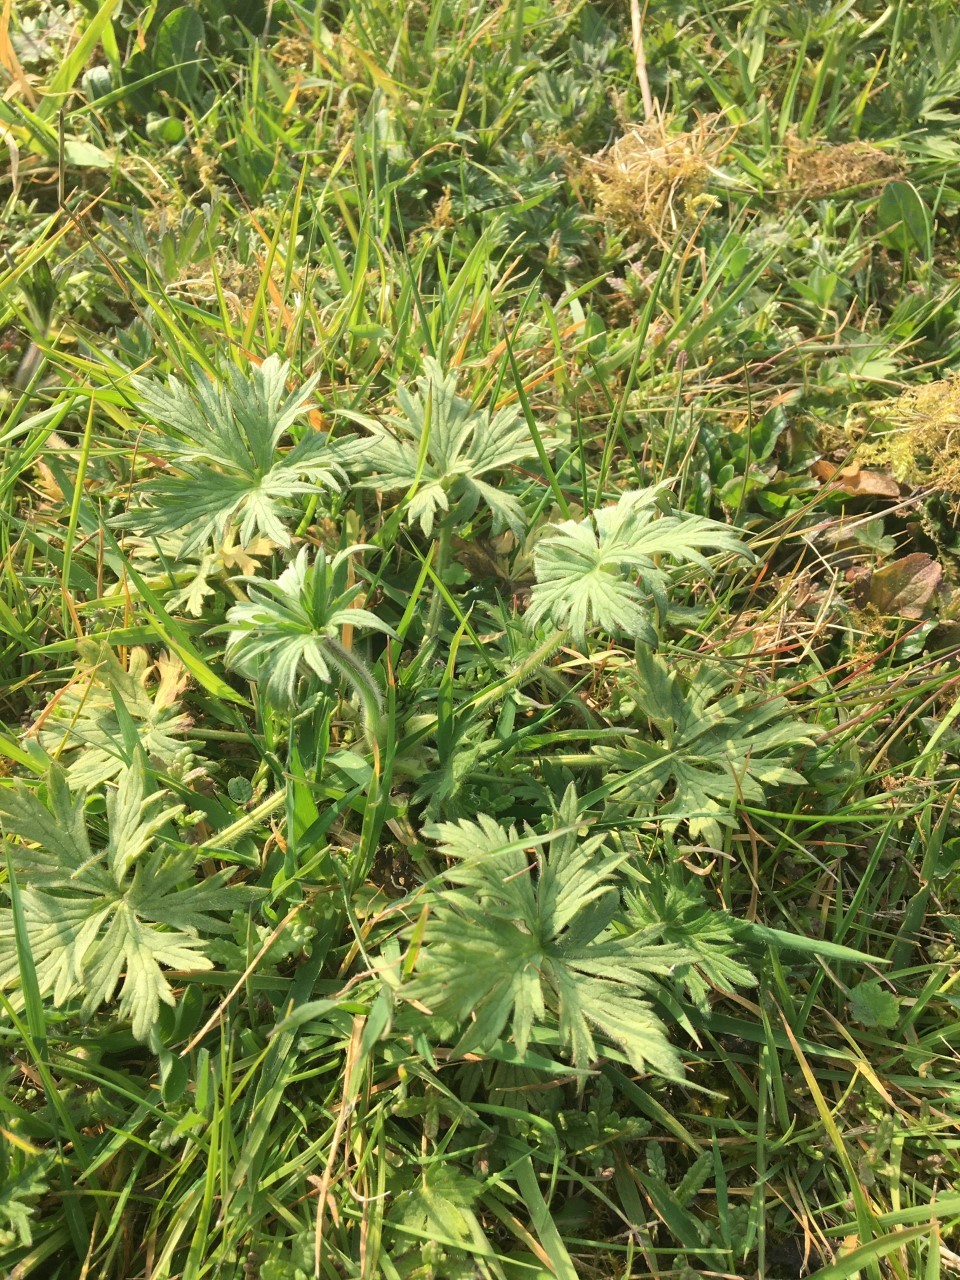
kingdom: Plantae
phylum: Tracheophyta
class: Magnoliopsida
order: Geraniales
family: Geraniaceae
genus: Geranium
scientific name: Geranium pratense
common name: Meadow crane's-bill
